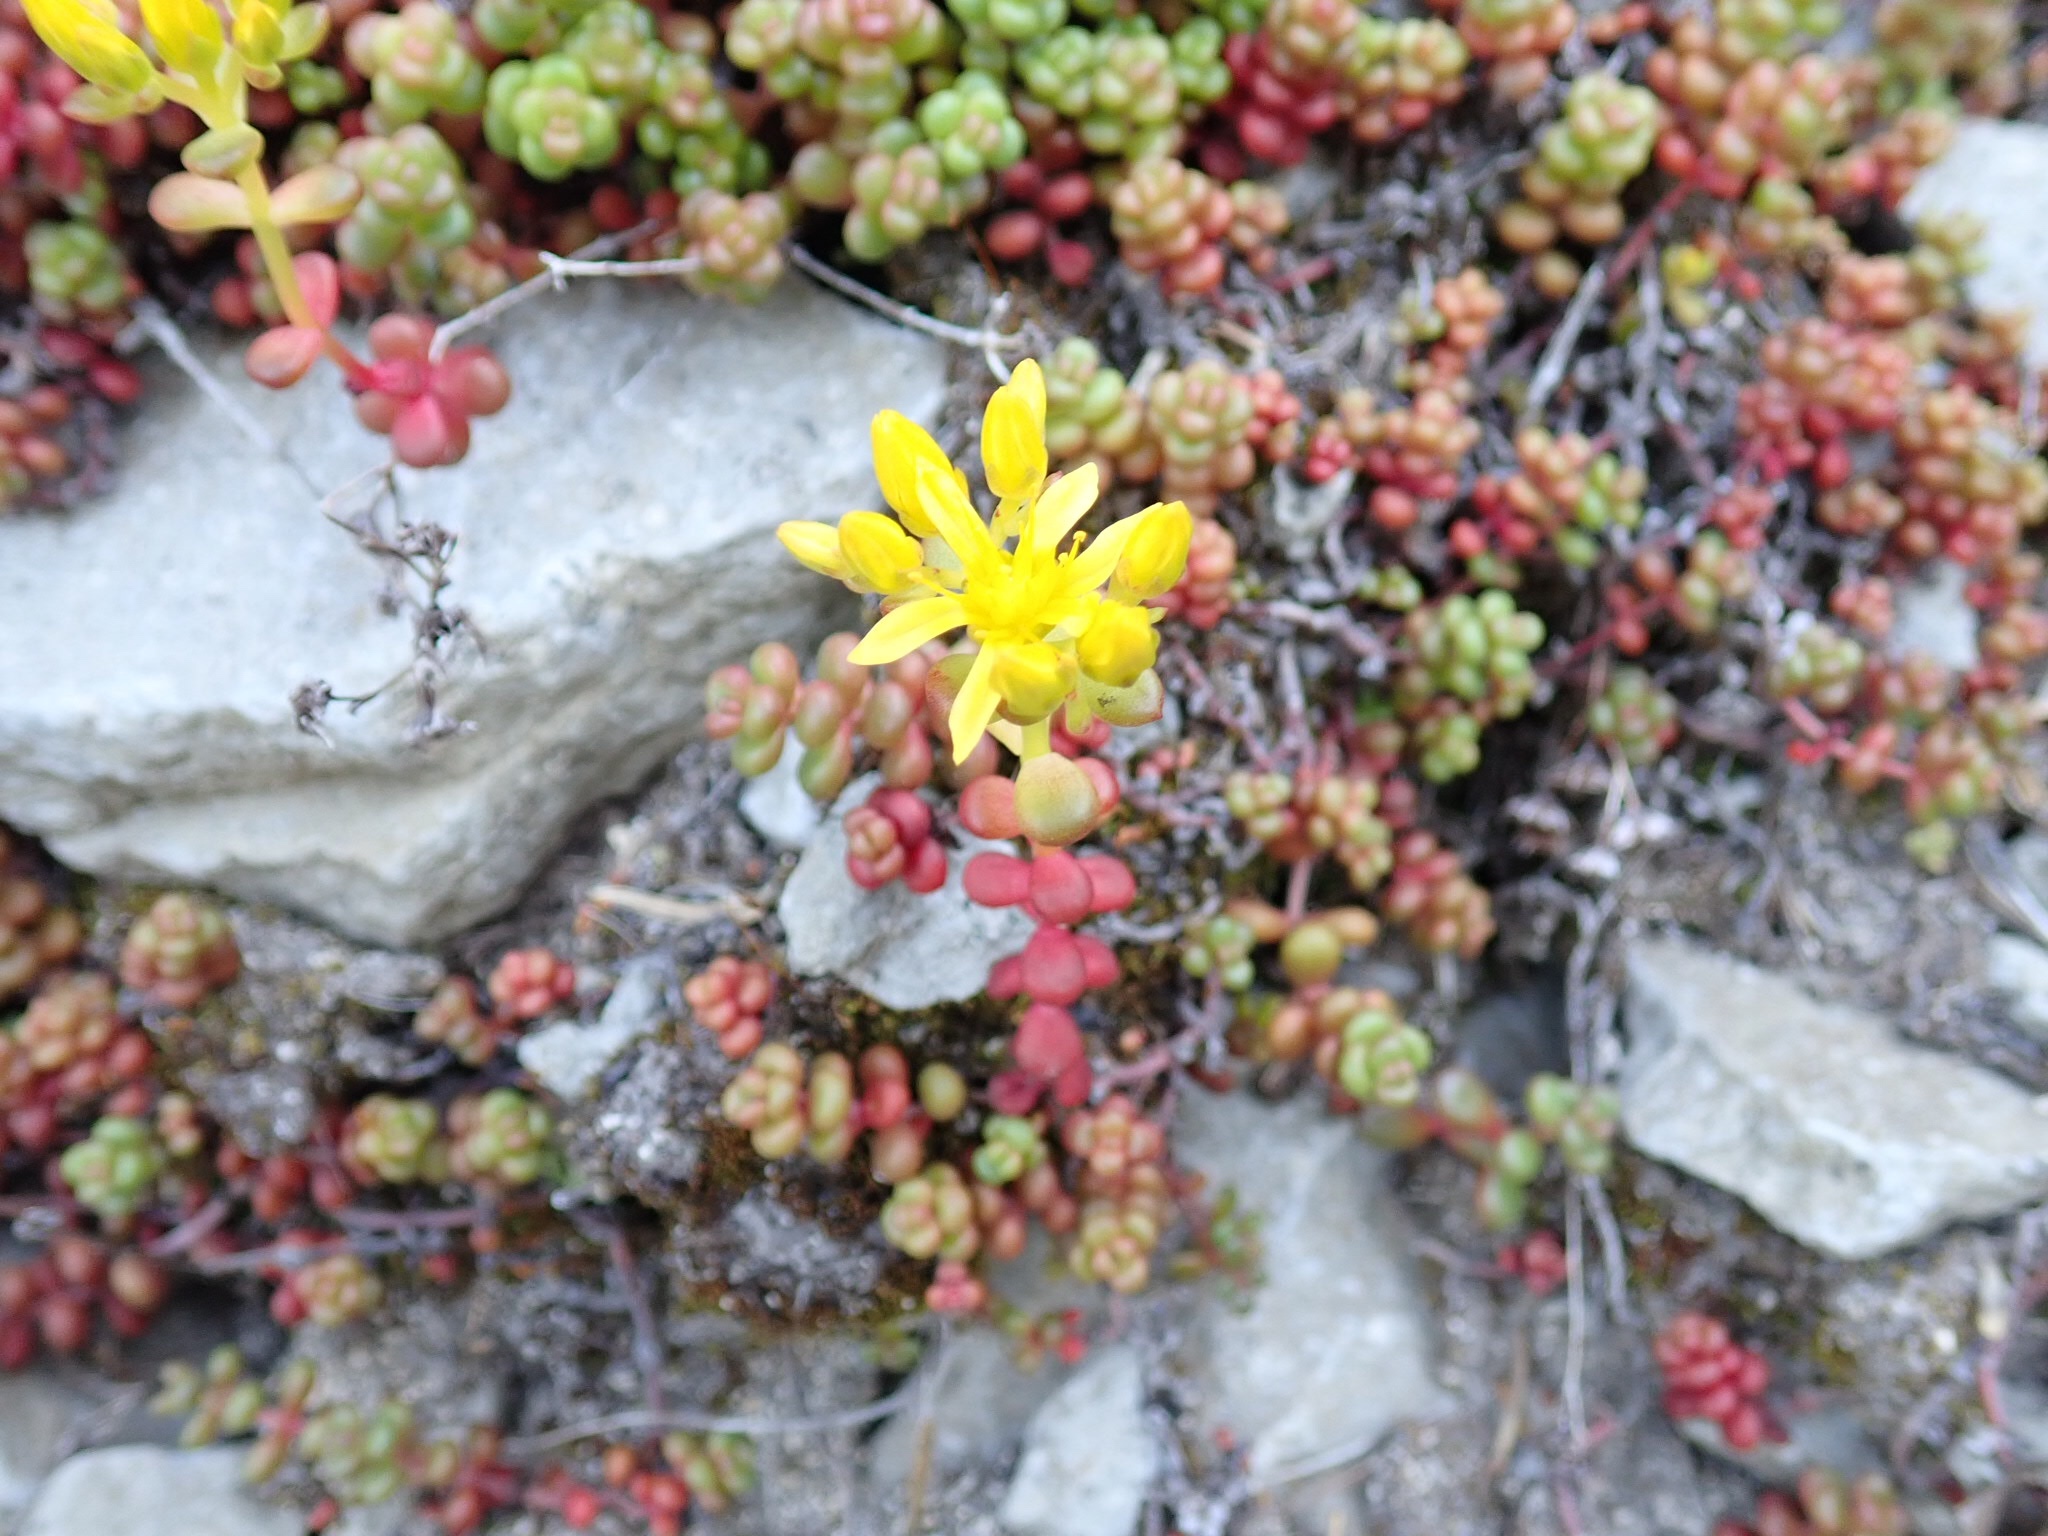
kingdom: Plantae
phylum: Tracheophyta
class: Magnoliopsida
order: Saxifragales
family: Crassulaceae
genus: Sedum
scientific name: Sedum divergens
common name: Cascade stonecrop
